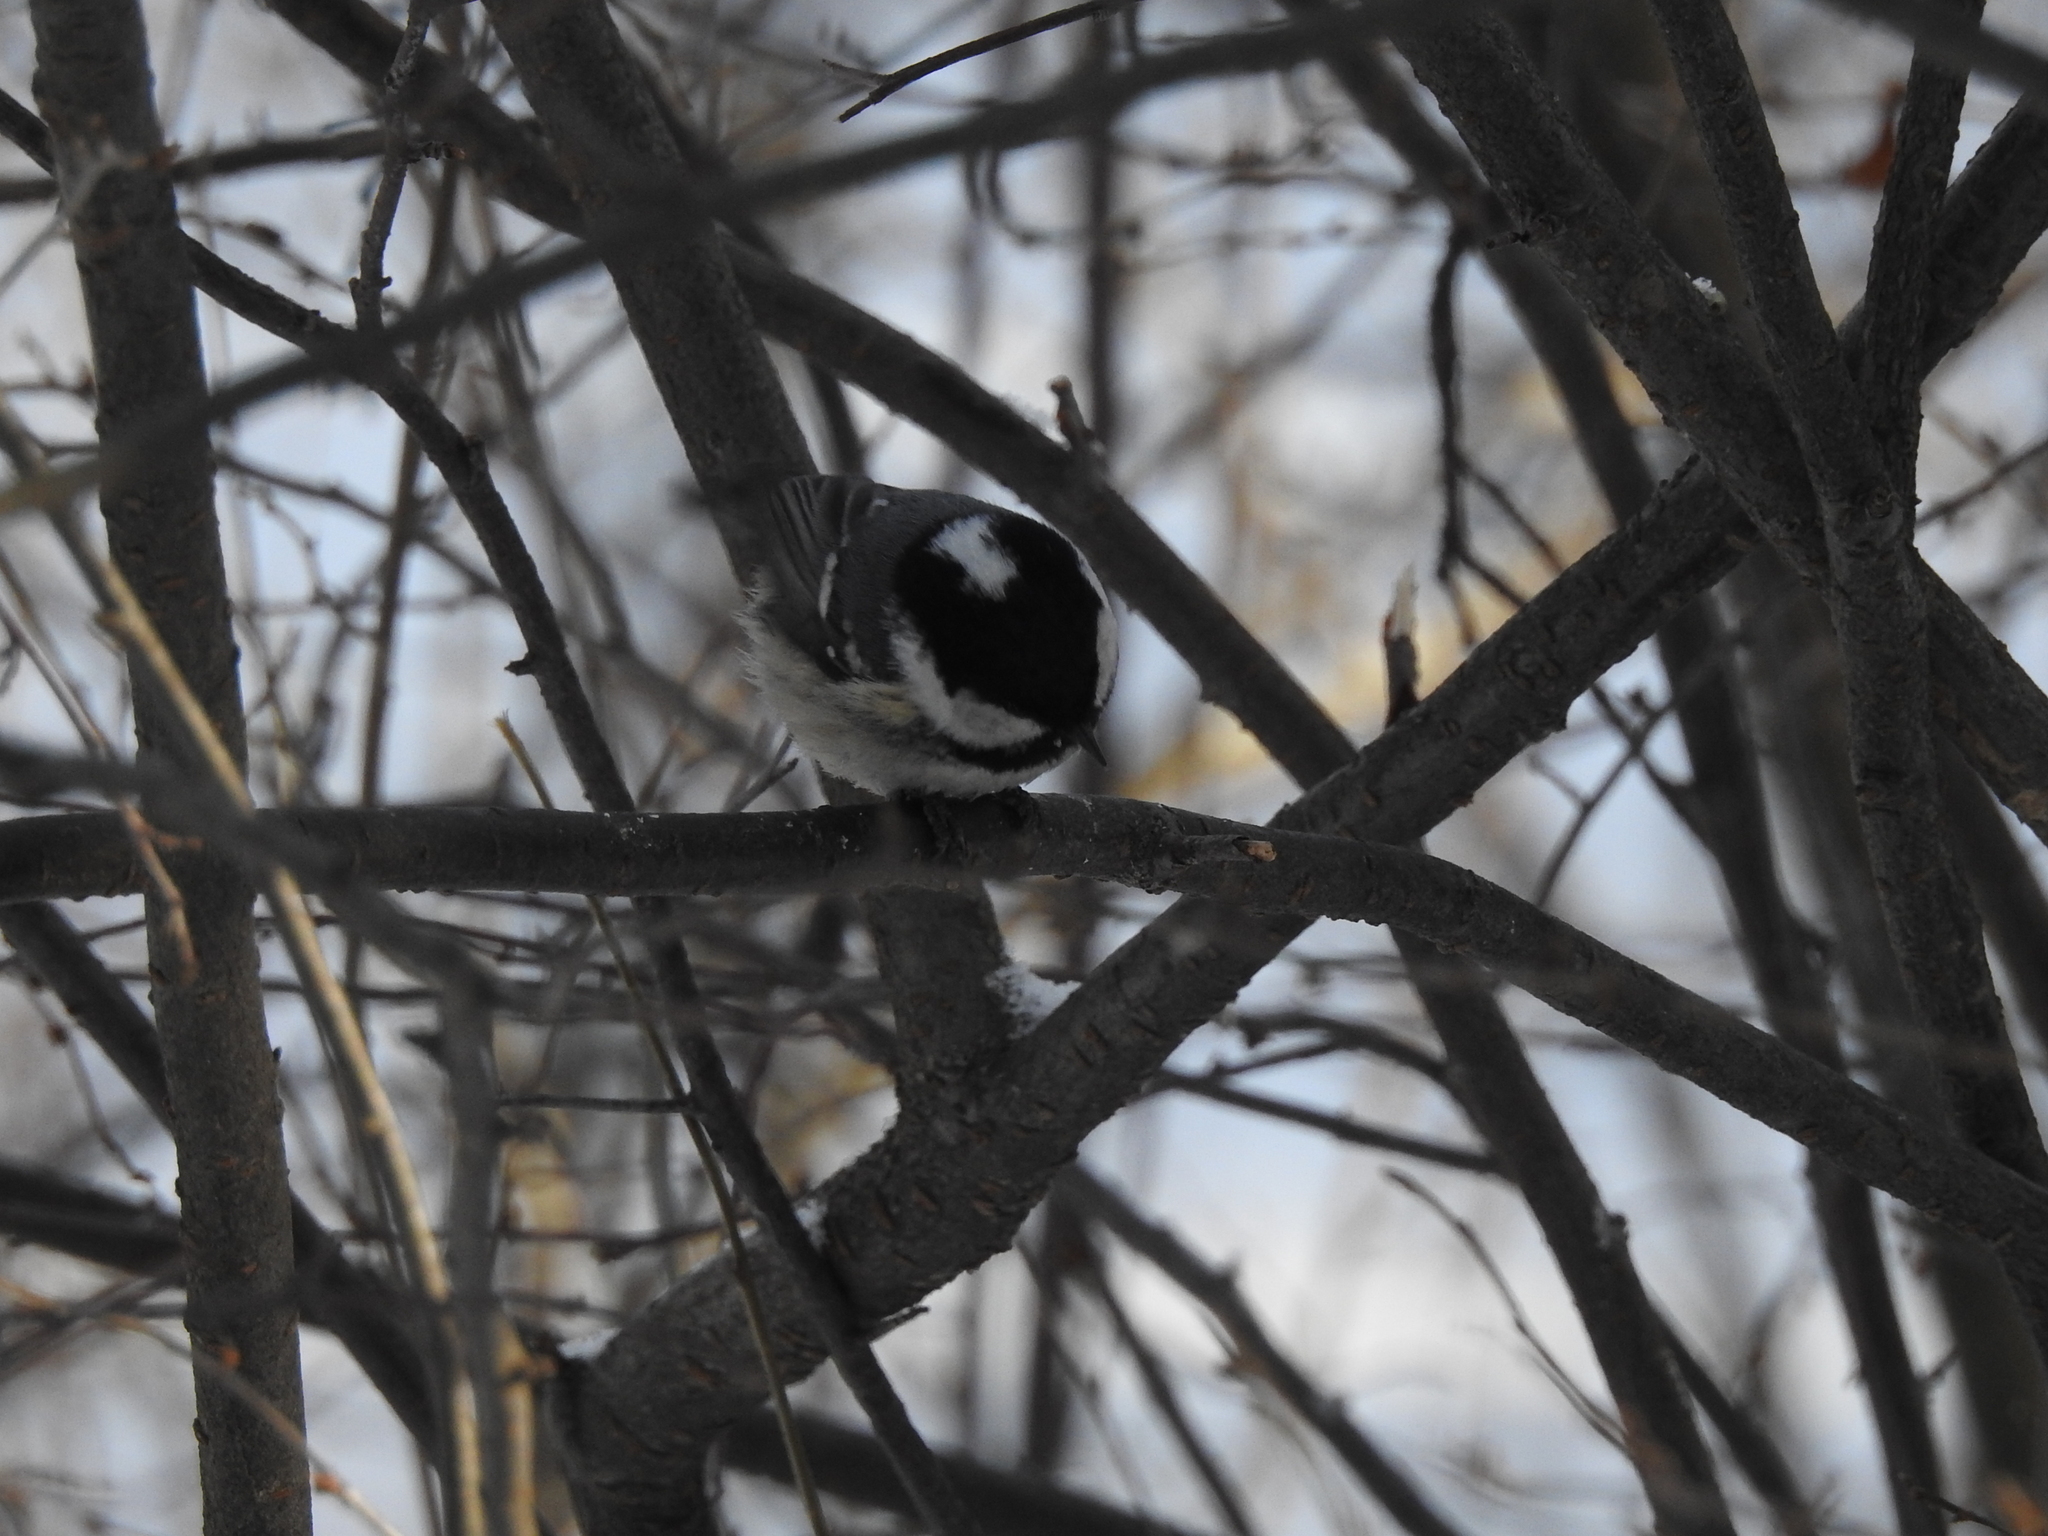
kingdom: Animalia
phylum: Chordata
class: Aves
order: Passeriformes
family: Paridae
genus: Periparus
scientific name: Periparus ater
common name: Coal tit
